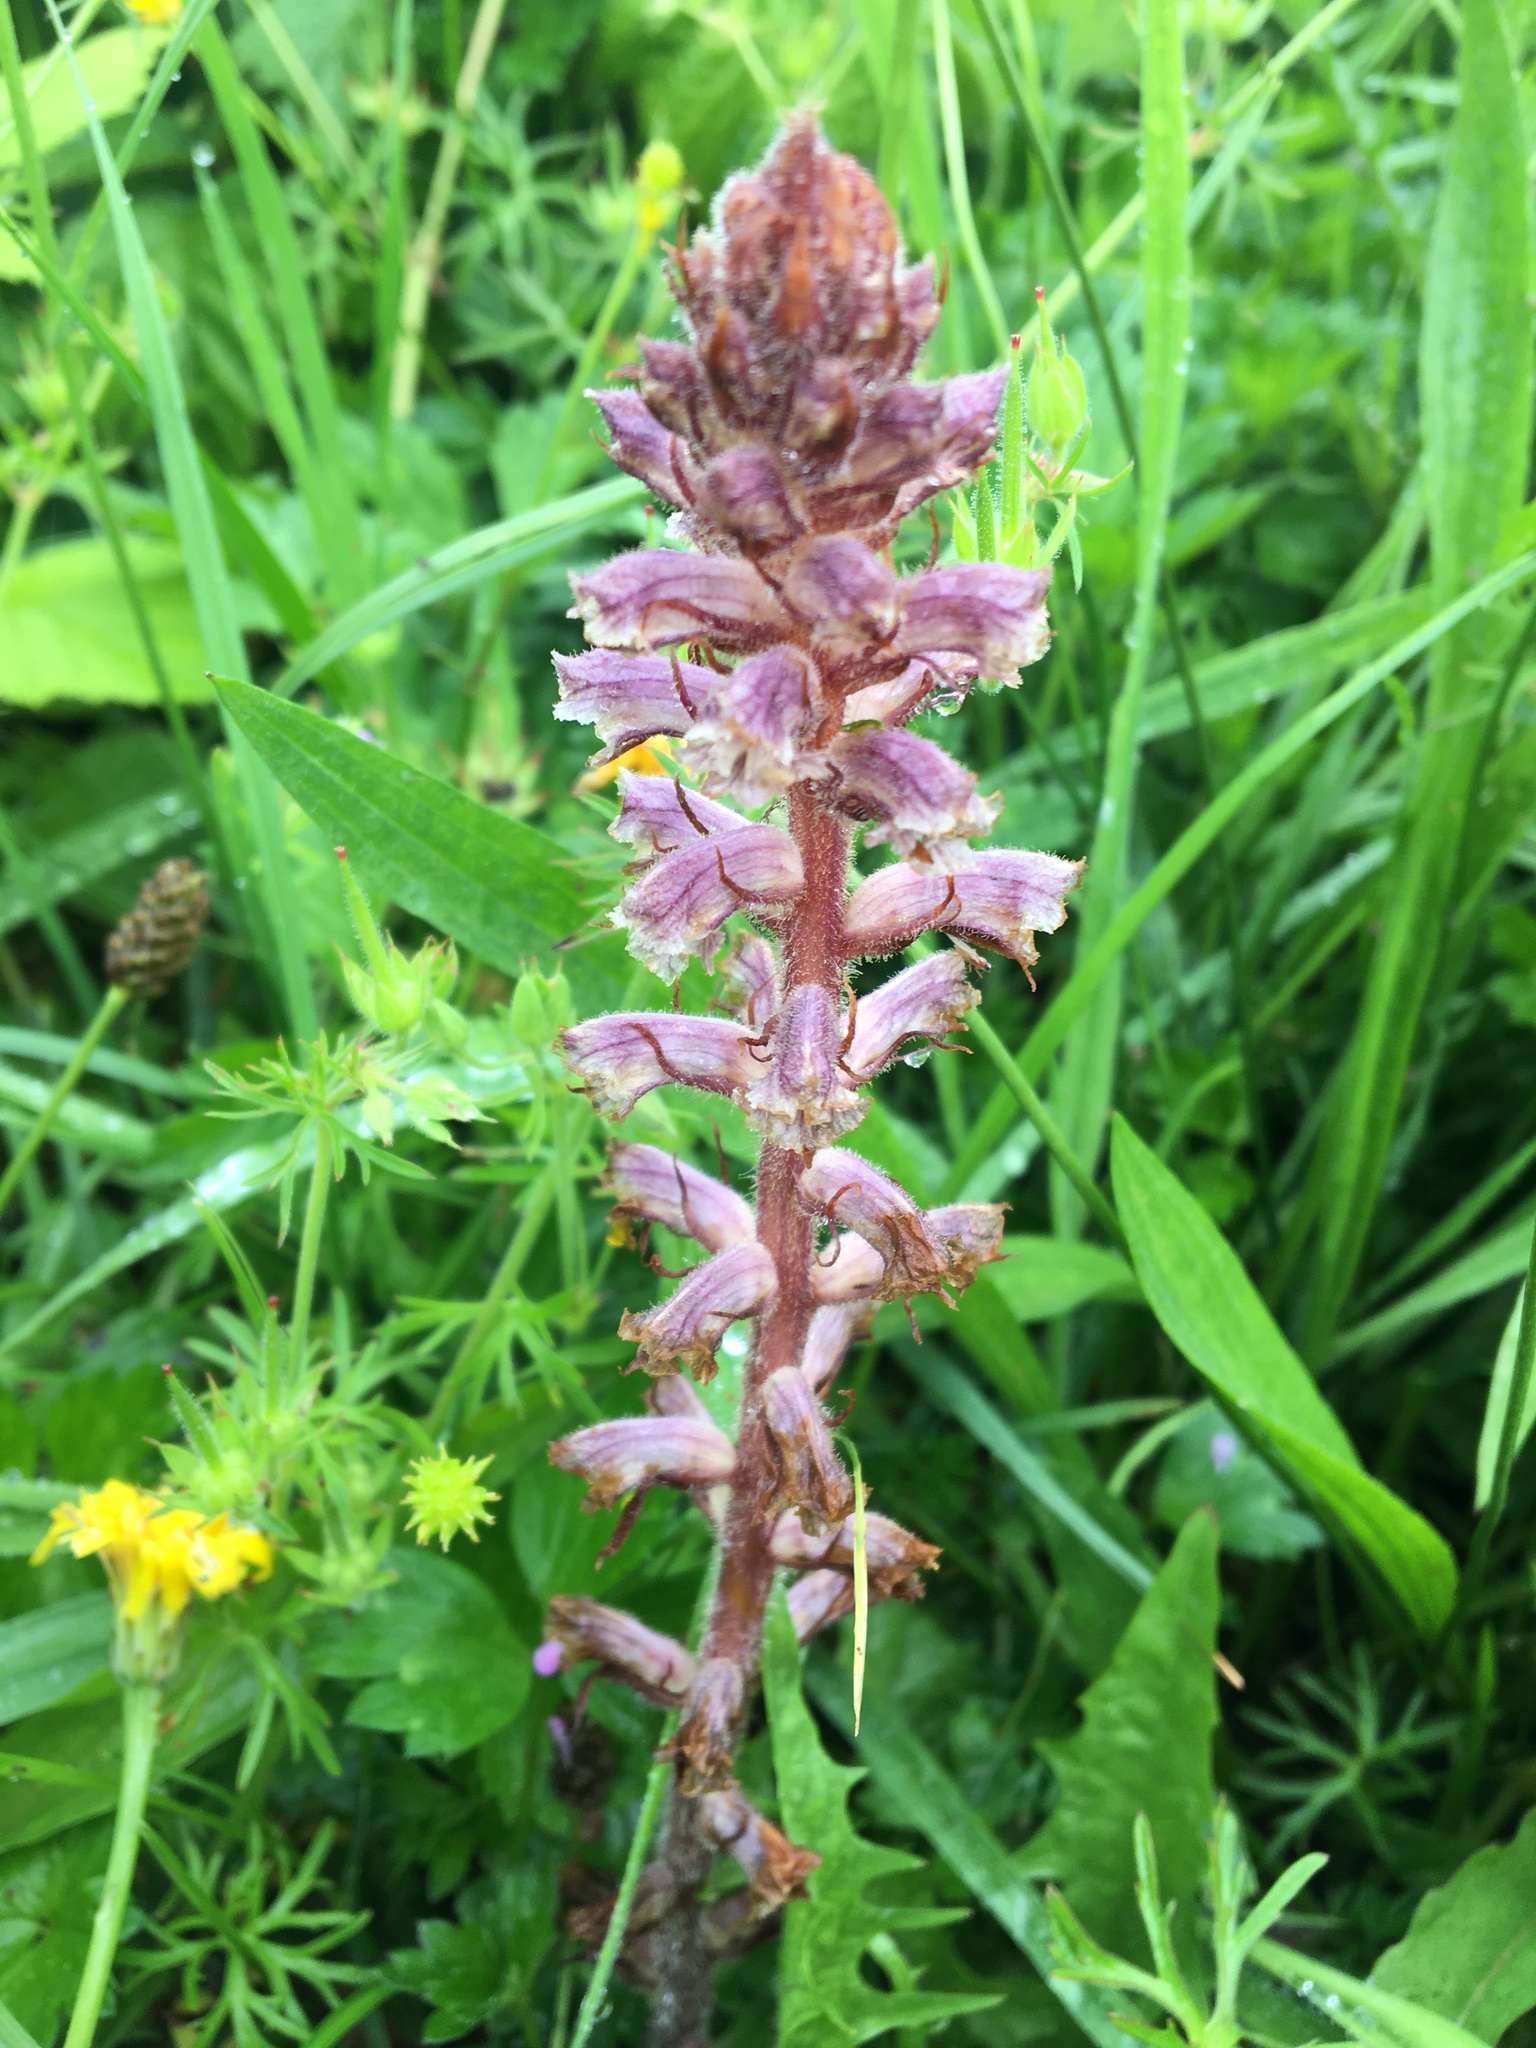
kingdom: Plantae
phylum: Tracheophyta
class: Magnoliopsida
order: Lamiales
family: Orobanchaceae
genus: Orobanche
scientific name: Orobanche minor
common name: Common broomrape
